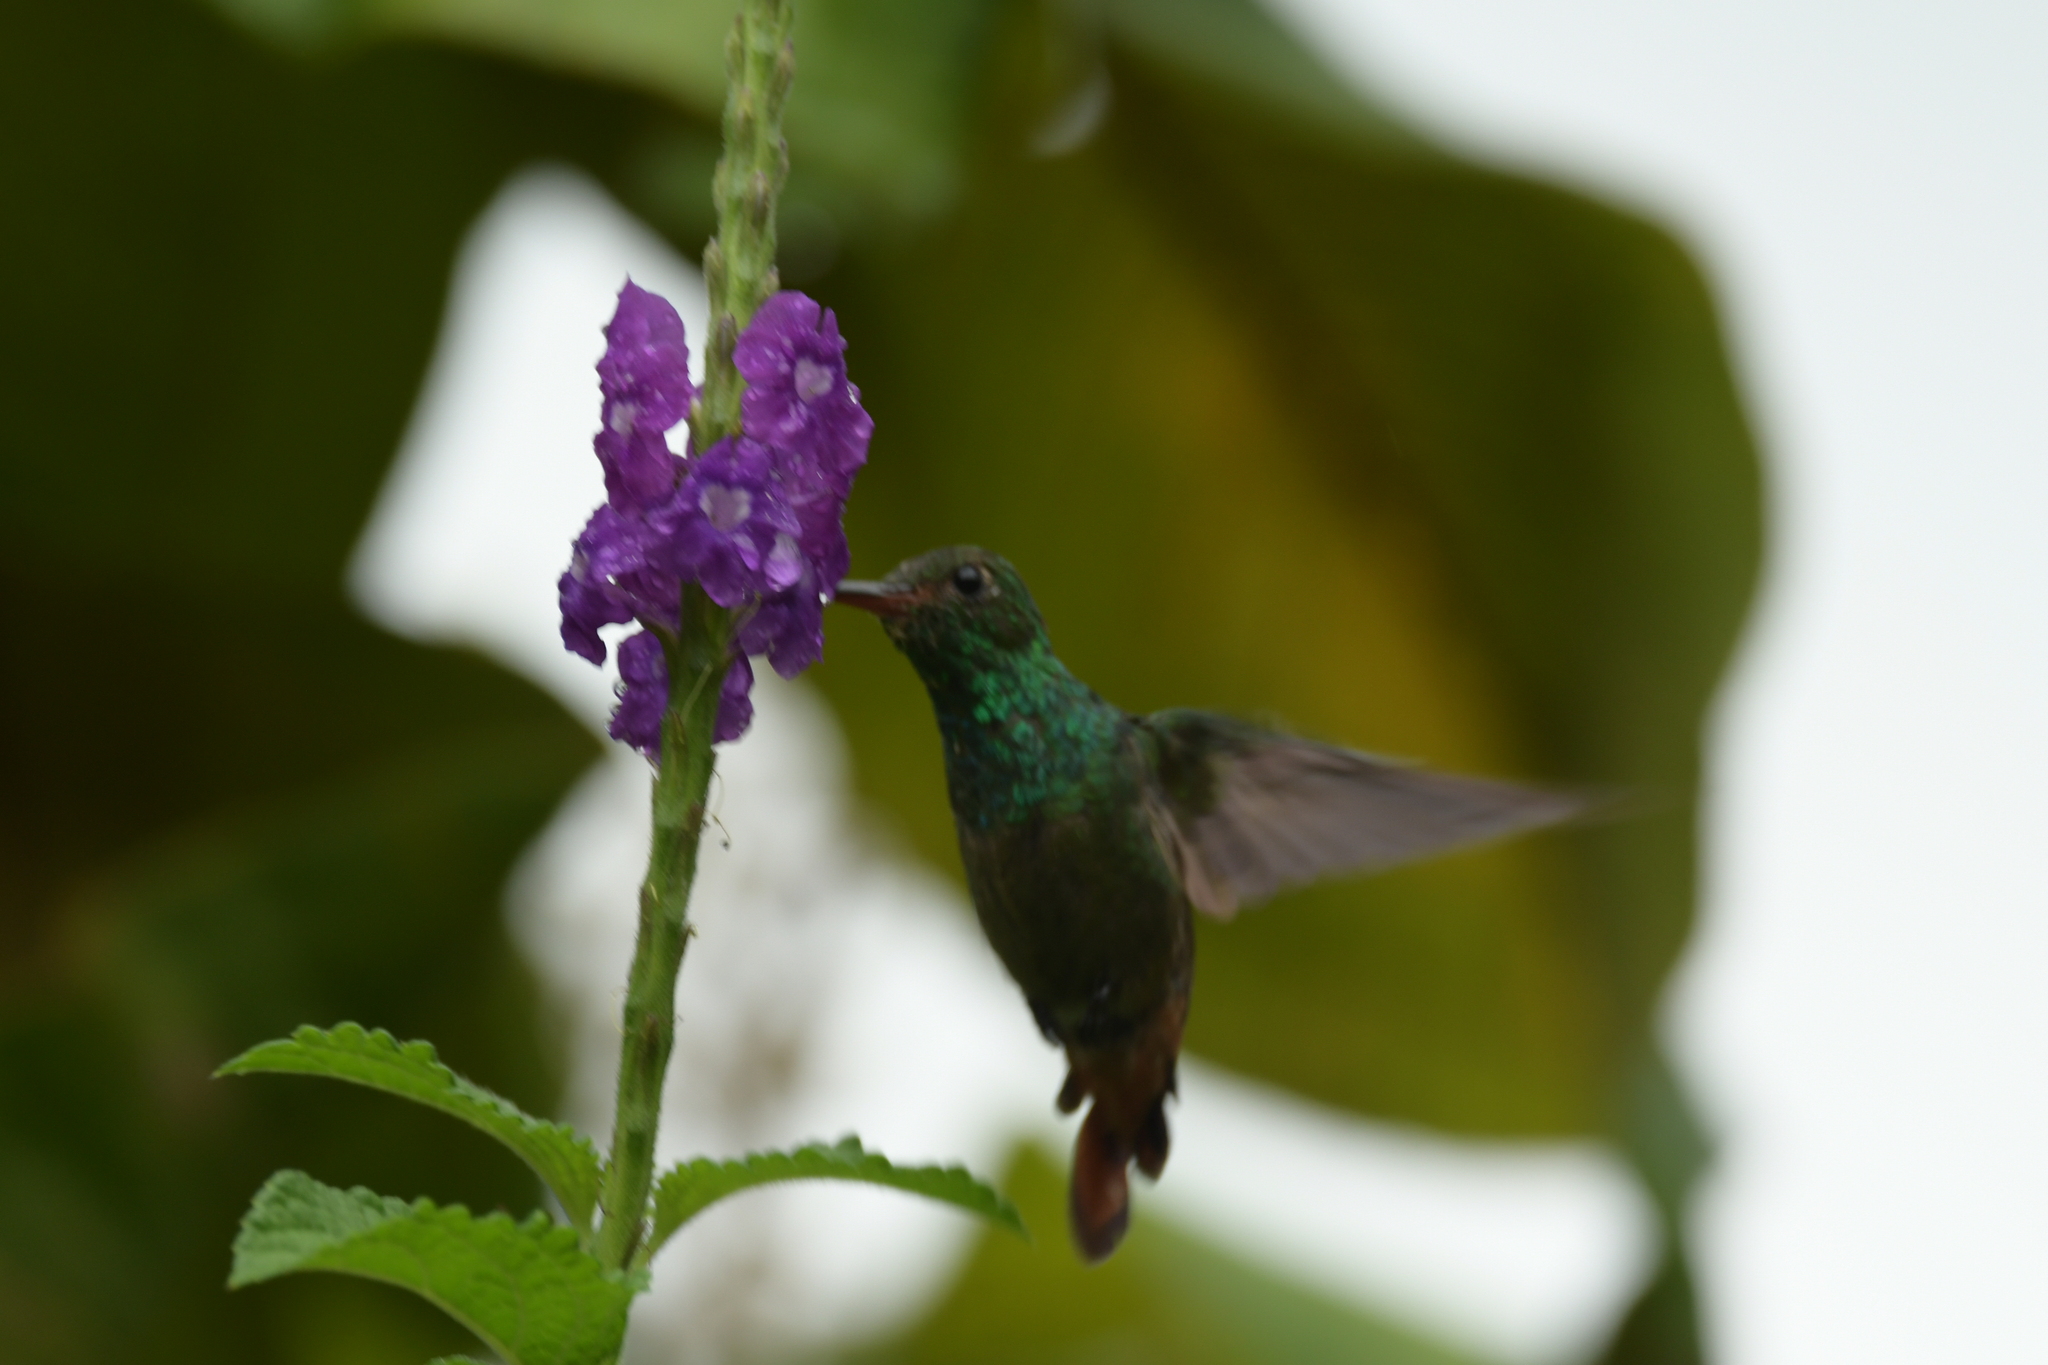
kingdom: Animalia
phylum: Chordata
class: Aves
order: Apodiformes
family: Trochilidae
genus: Amazilia
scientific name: Amazilia tzacatl
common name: Rufous-tailed hummingbird
